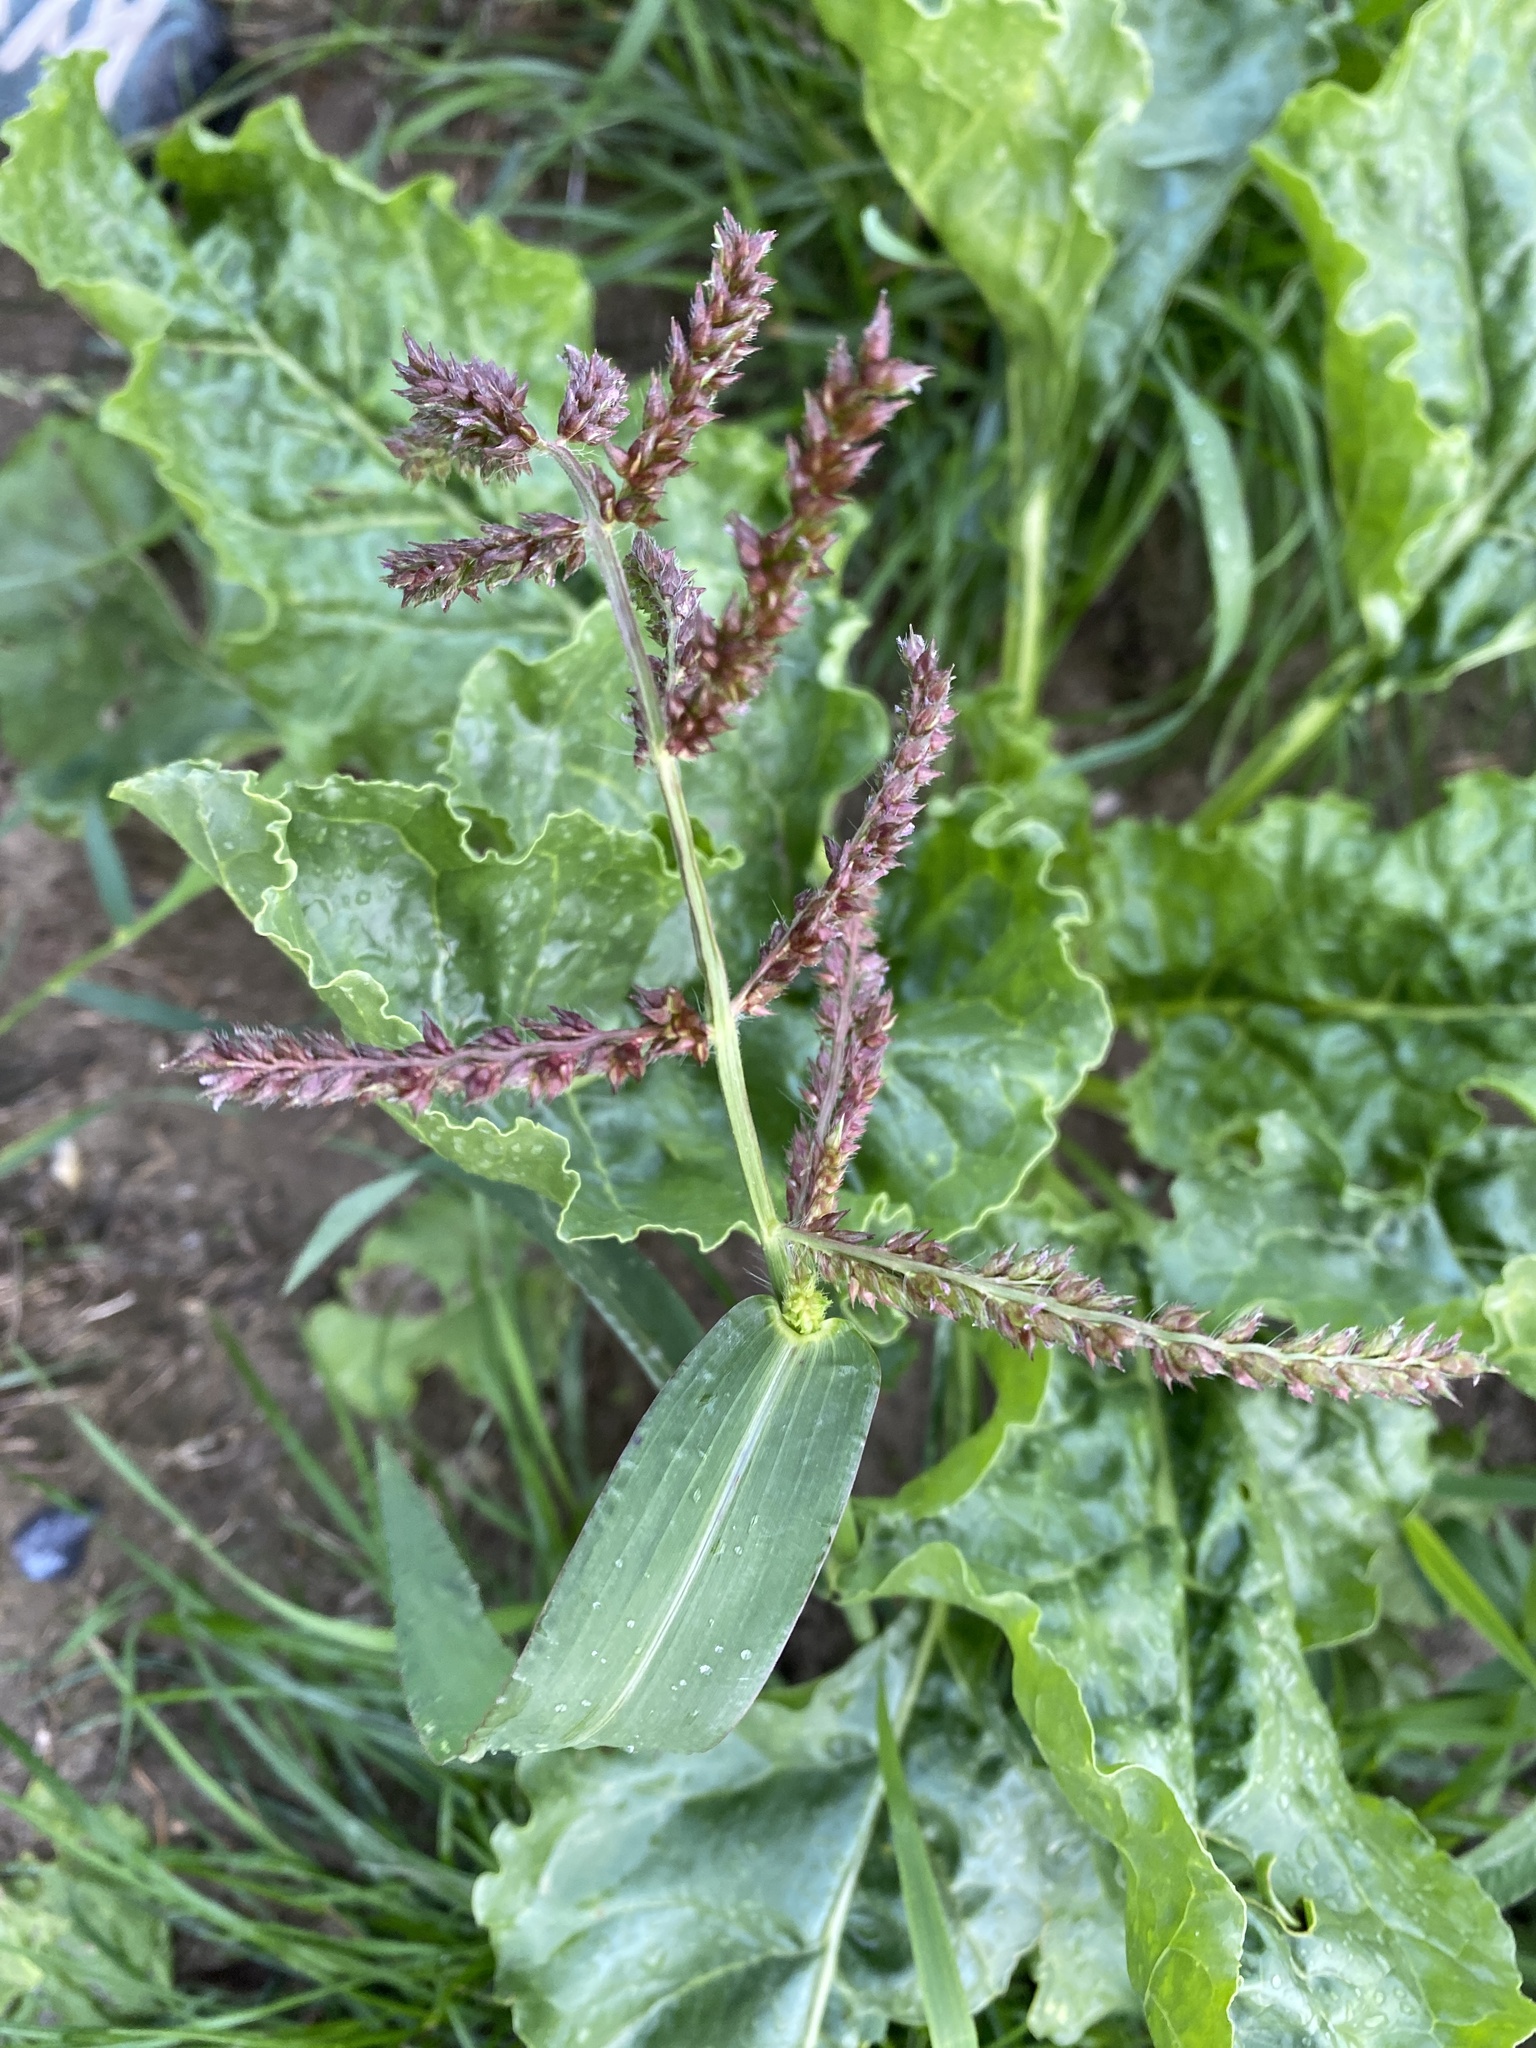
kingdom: Plantae
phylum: Tracheophyta
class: Liliopsida
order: Poales
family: Poaceae
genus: Echinochloa
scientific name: Echinochloa crus-galli
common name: Cockspur
